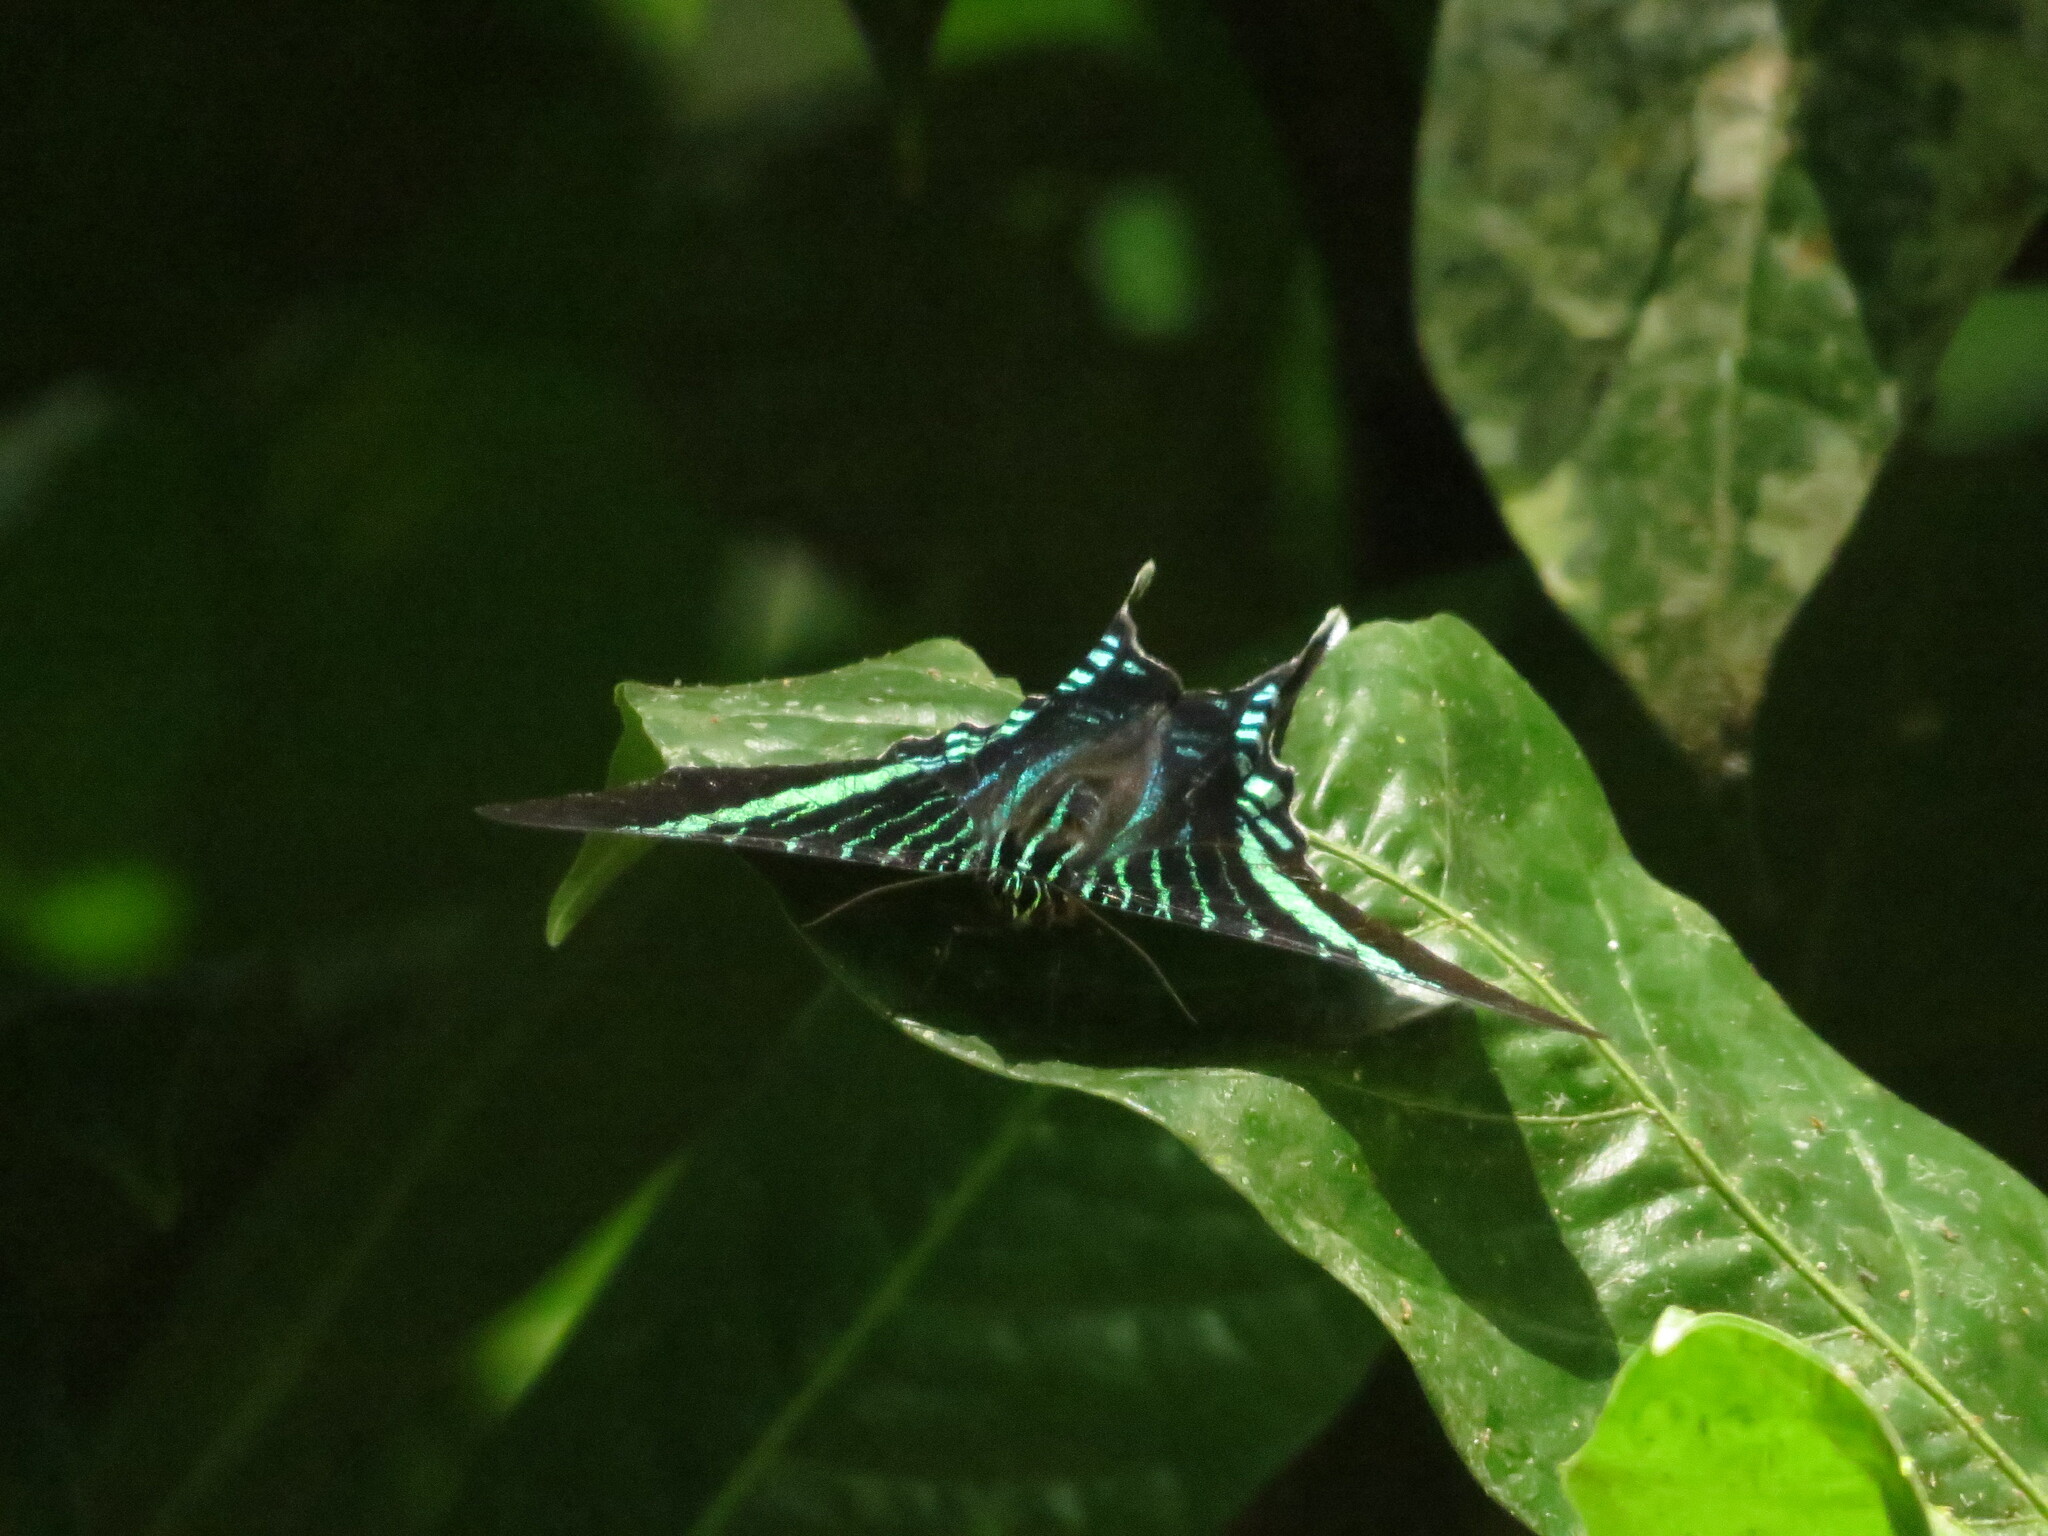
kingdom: Animalia
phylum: Arthropoda
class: Insecta
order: Lepidoptera
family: Uraniidae
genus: Urania
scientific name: Urania fulgens
